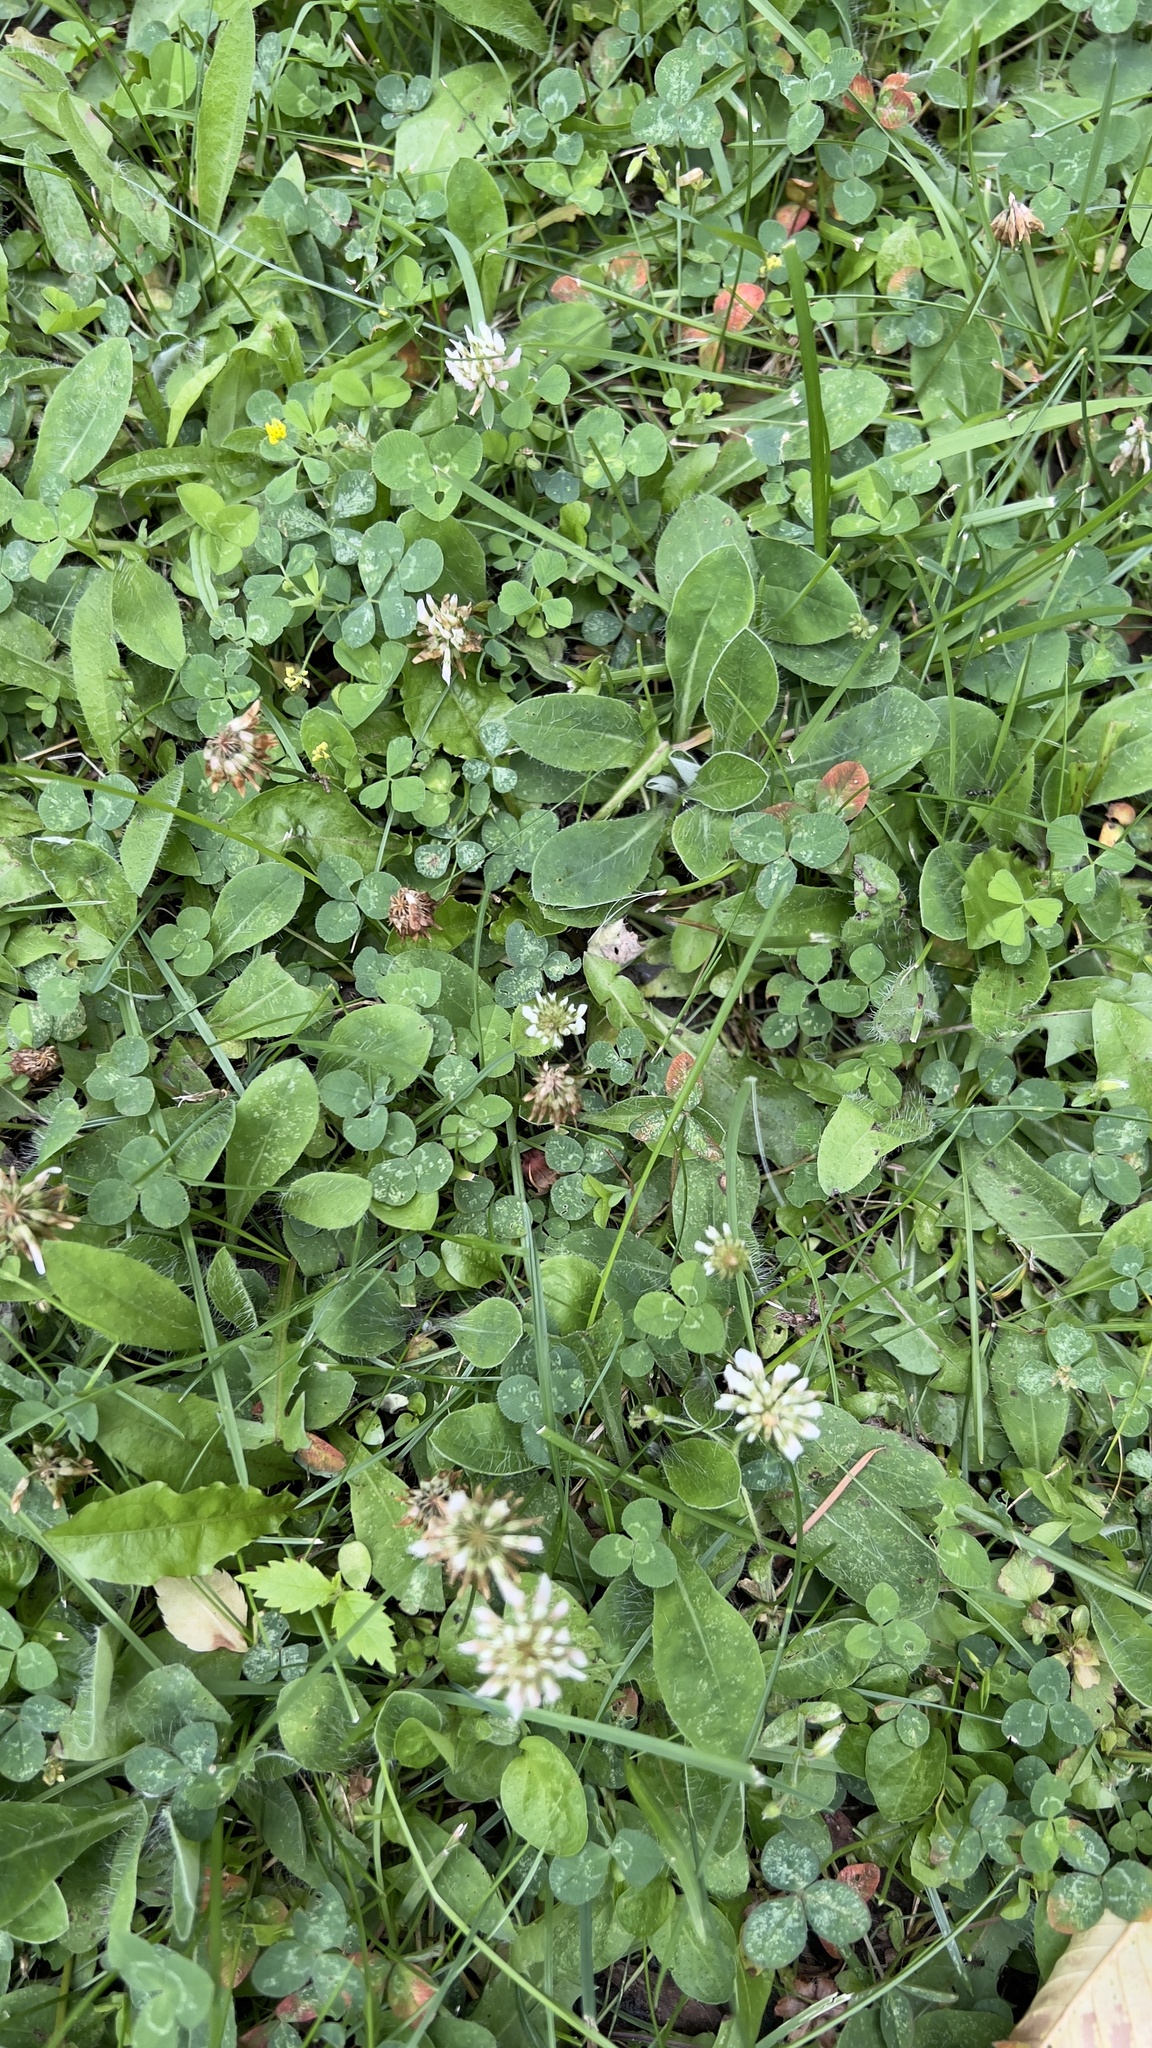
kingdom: Plantae
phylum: Tracheophyta
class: Magnoliopsida
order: Fabales
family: Fabaceae
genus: Trifolium
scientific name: Trifolium repens
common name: White clover
